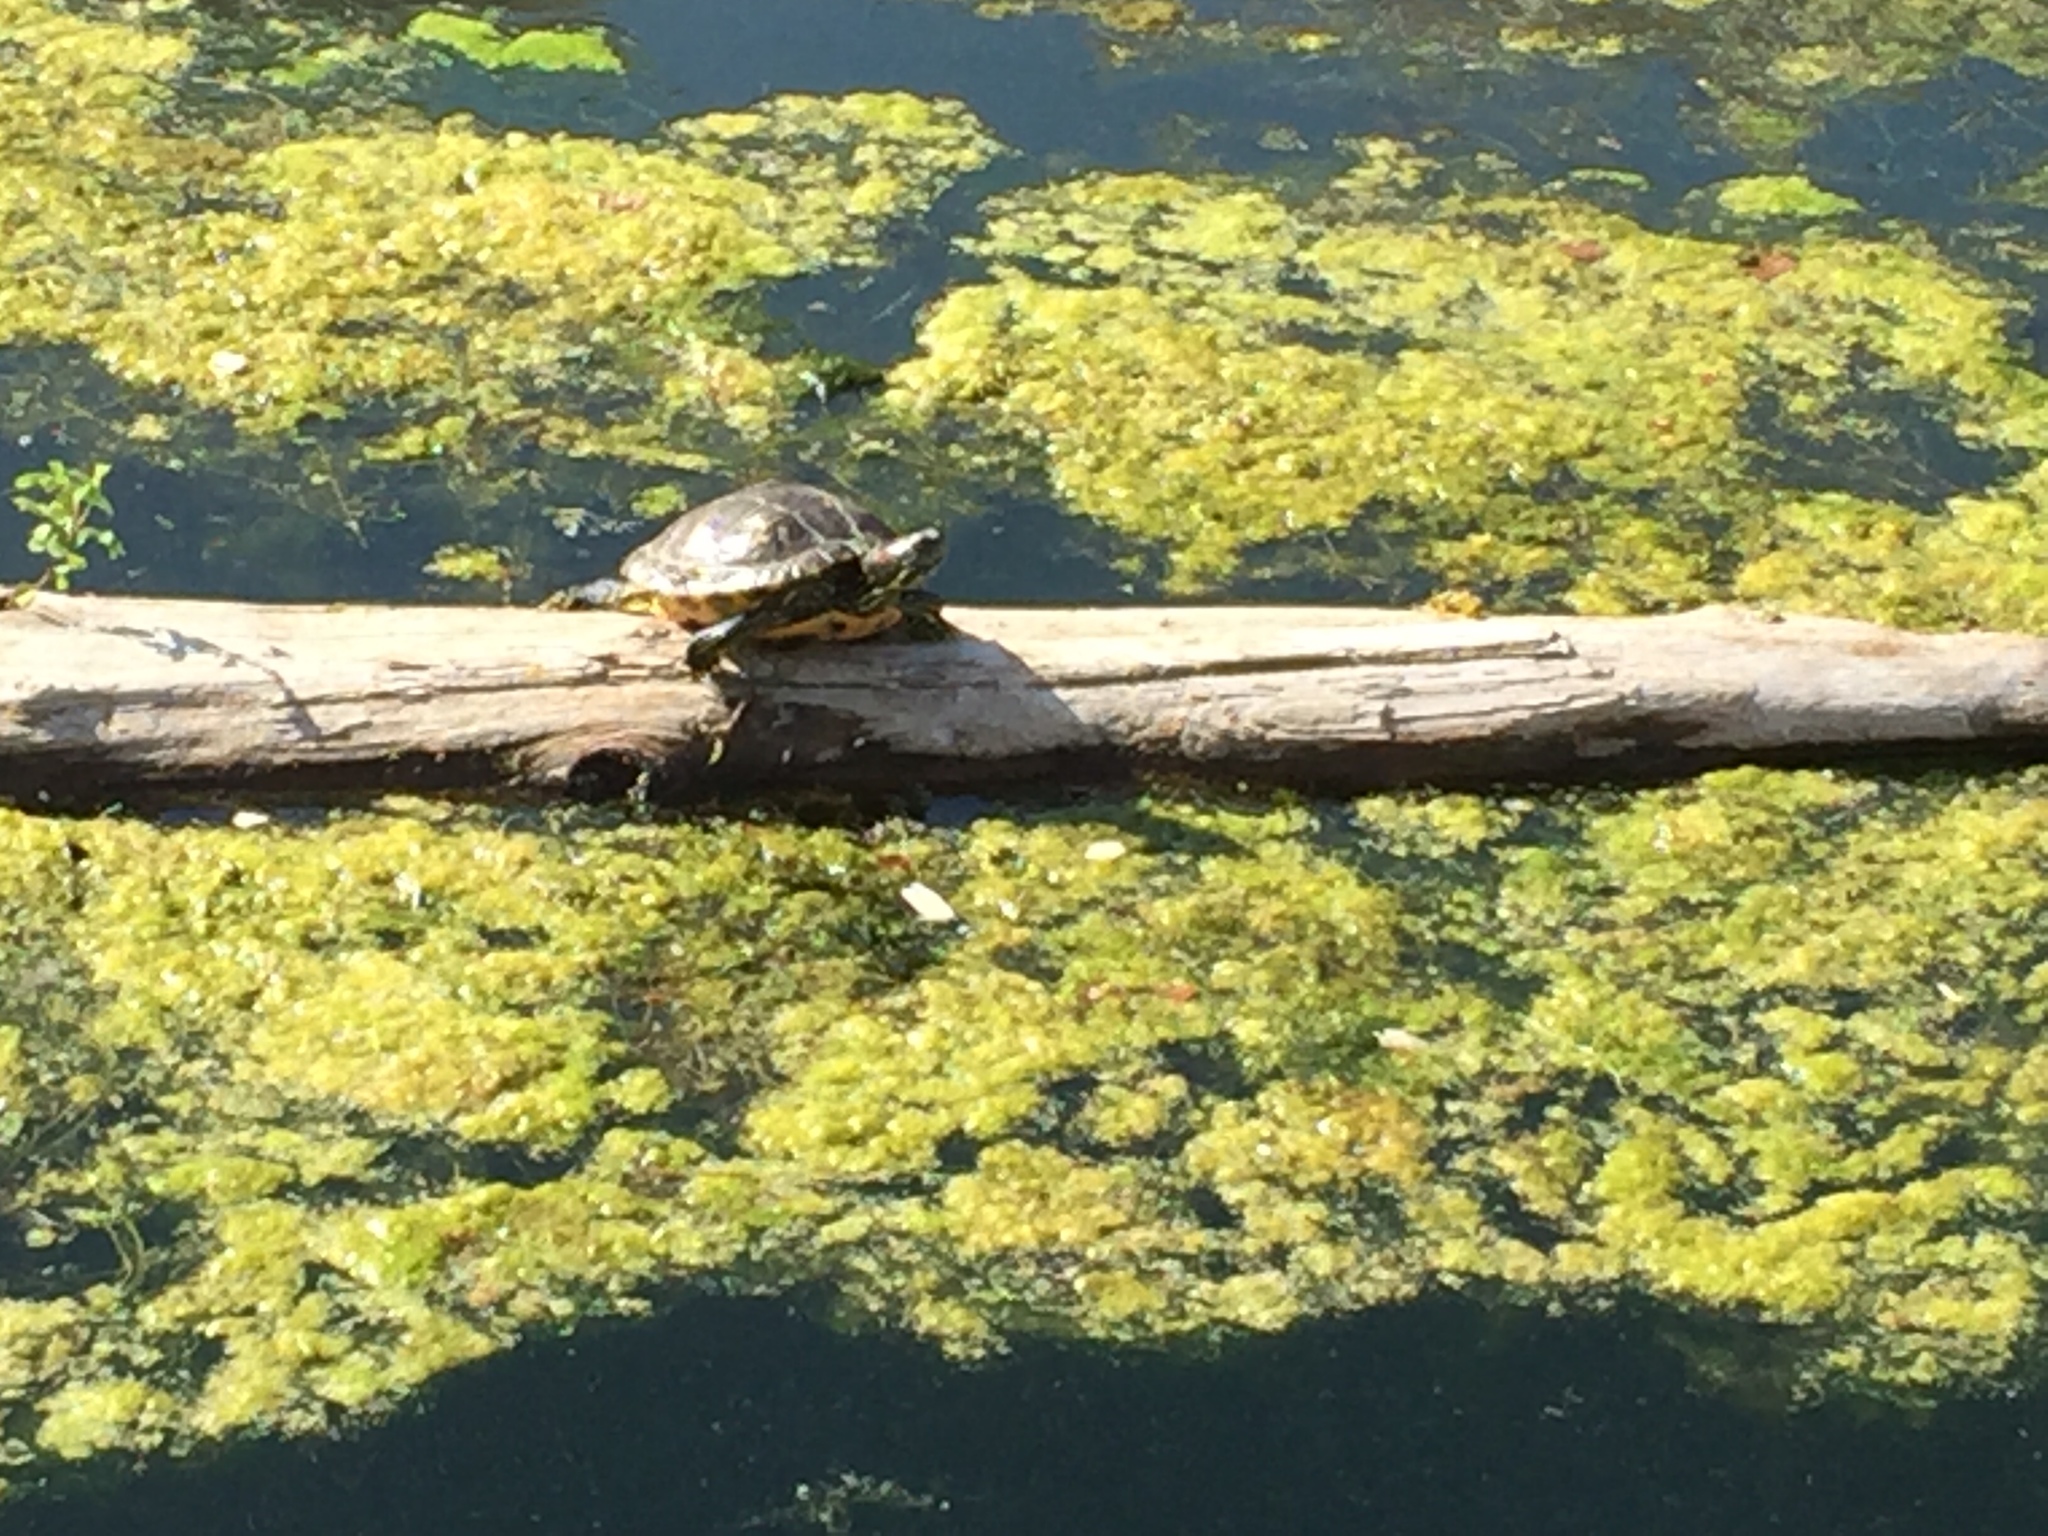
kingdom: Animalia
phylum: Chordata
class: Testudines
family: Emydidae
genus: Trachemys
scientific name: Trachemys scripta
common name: Slider
